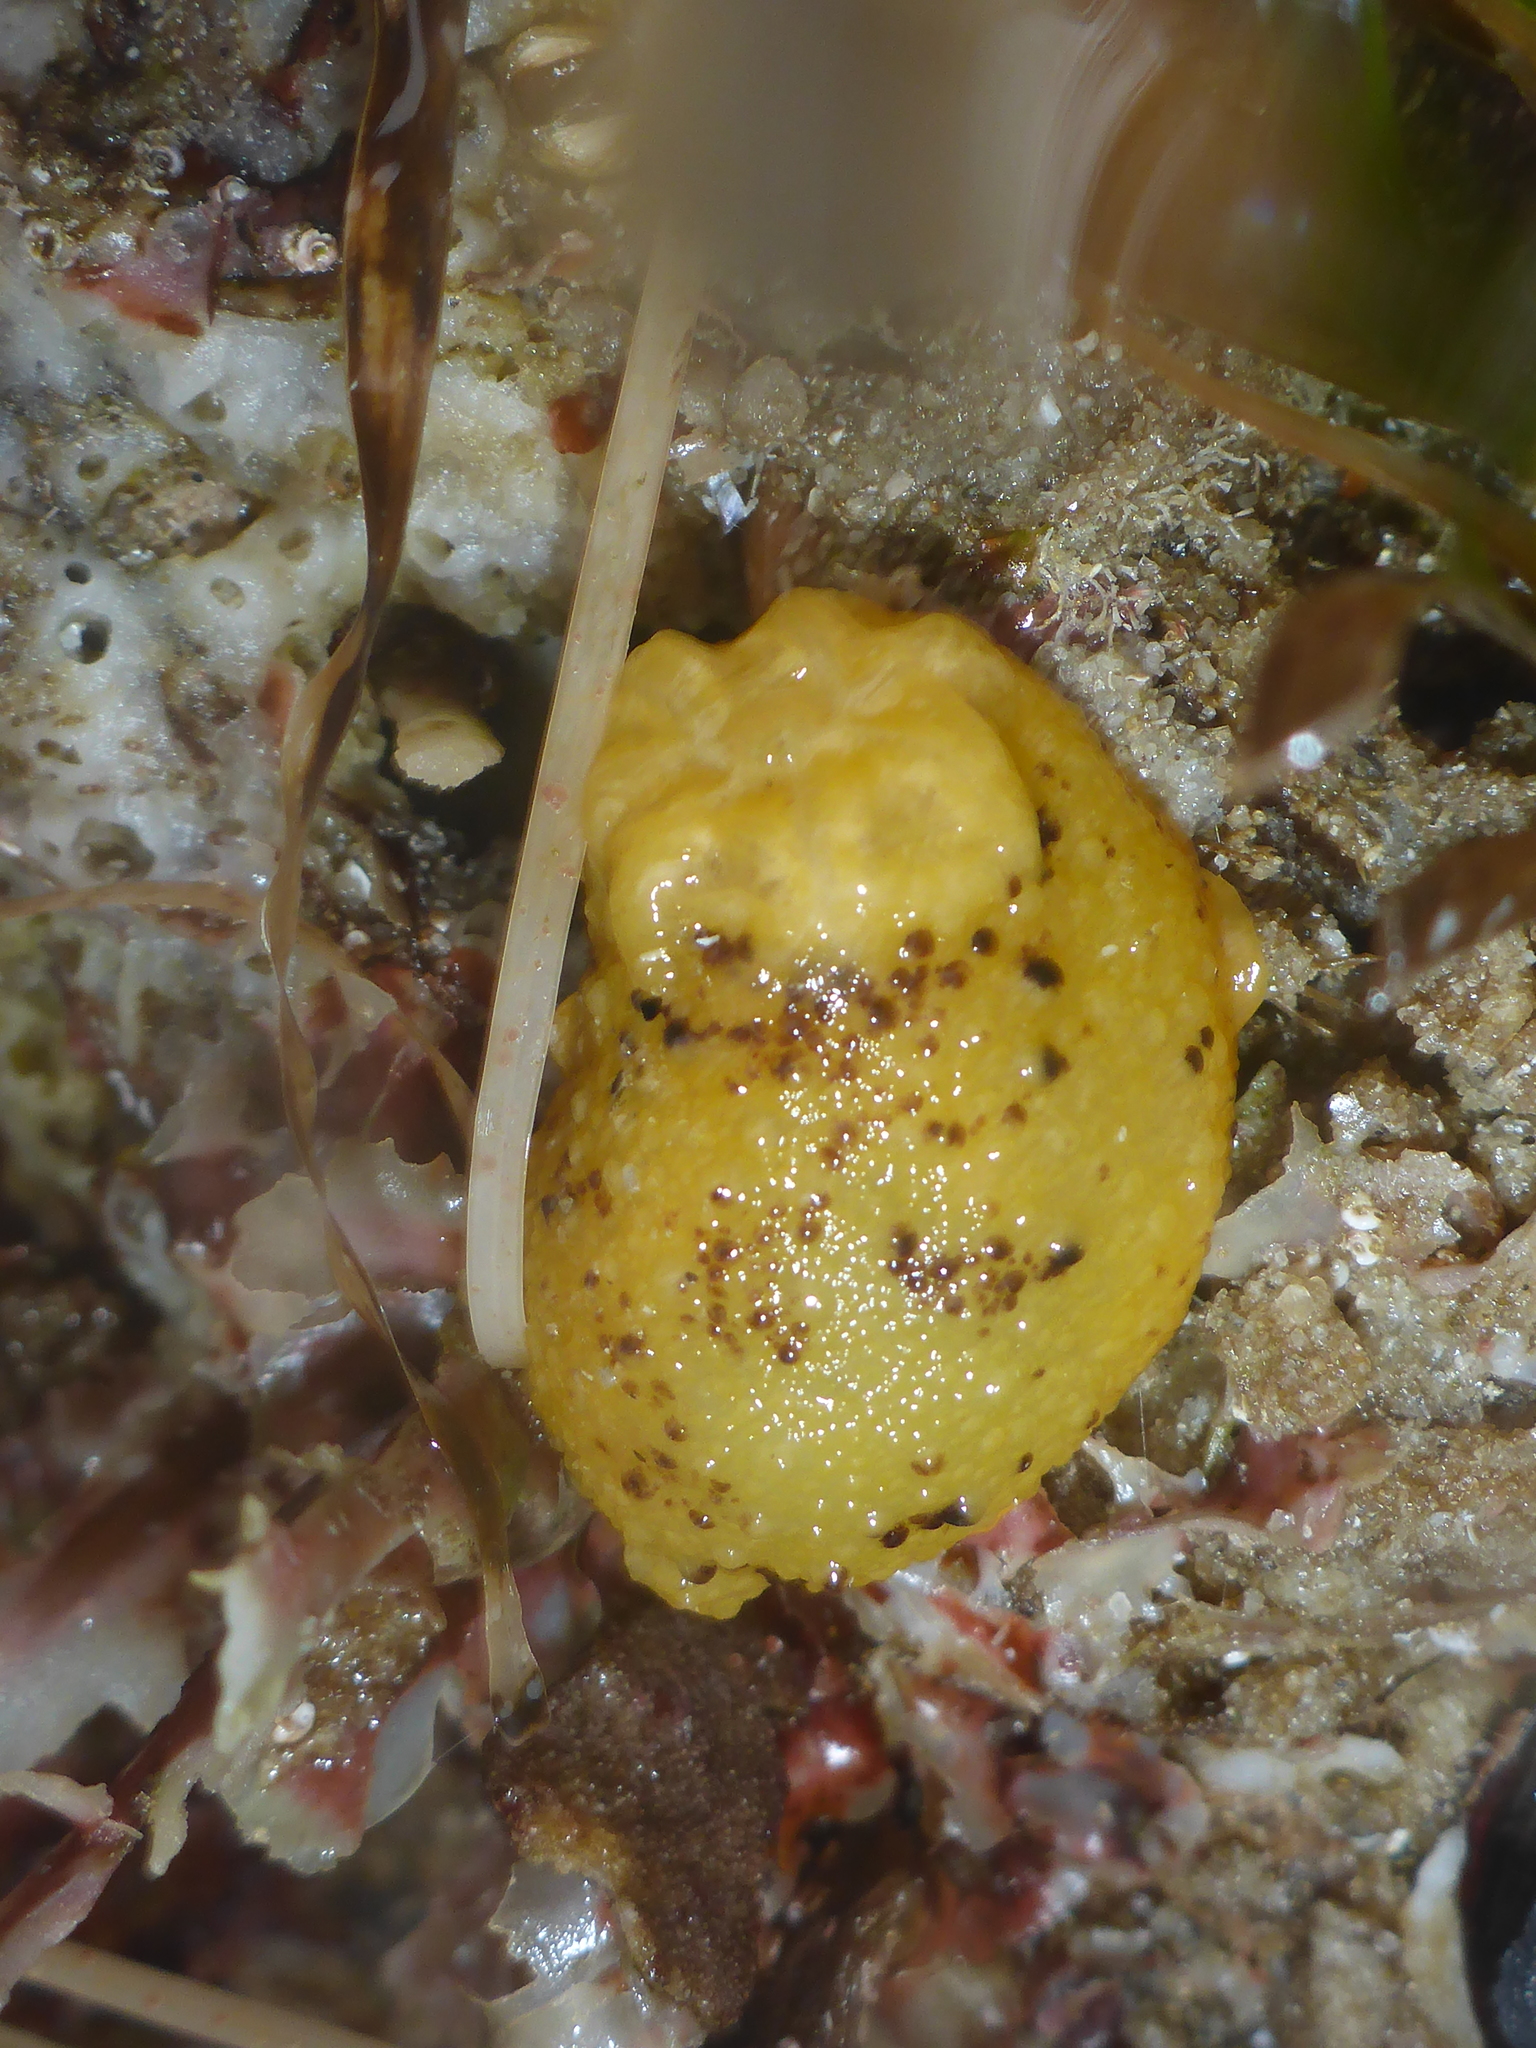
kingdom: Animalia
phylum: Mollusca
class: Gastropoda
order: Nudibranchia
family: Dorididae
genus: Doris
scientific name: Doris montereyensis
